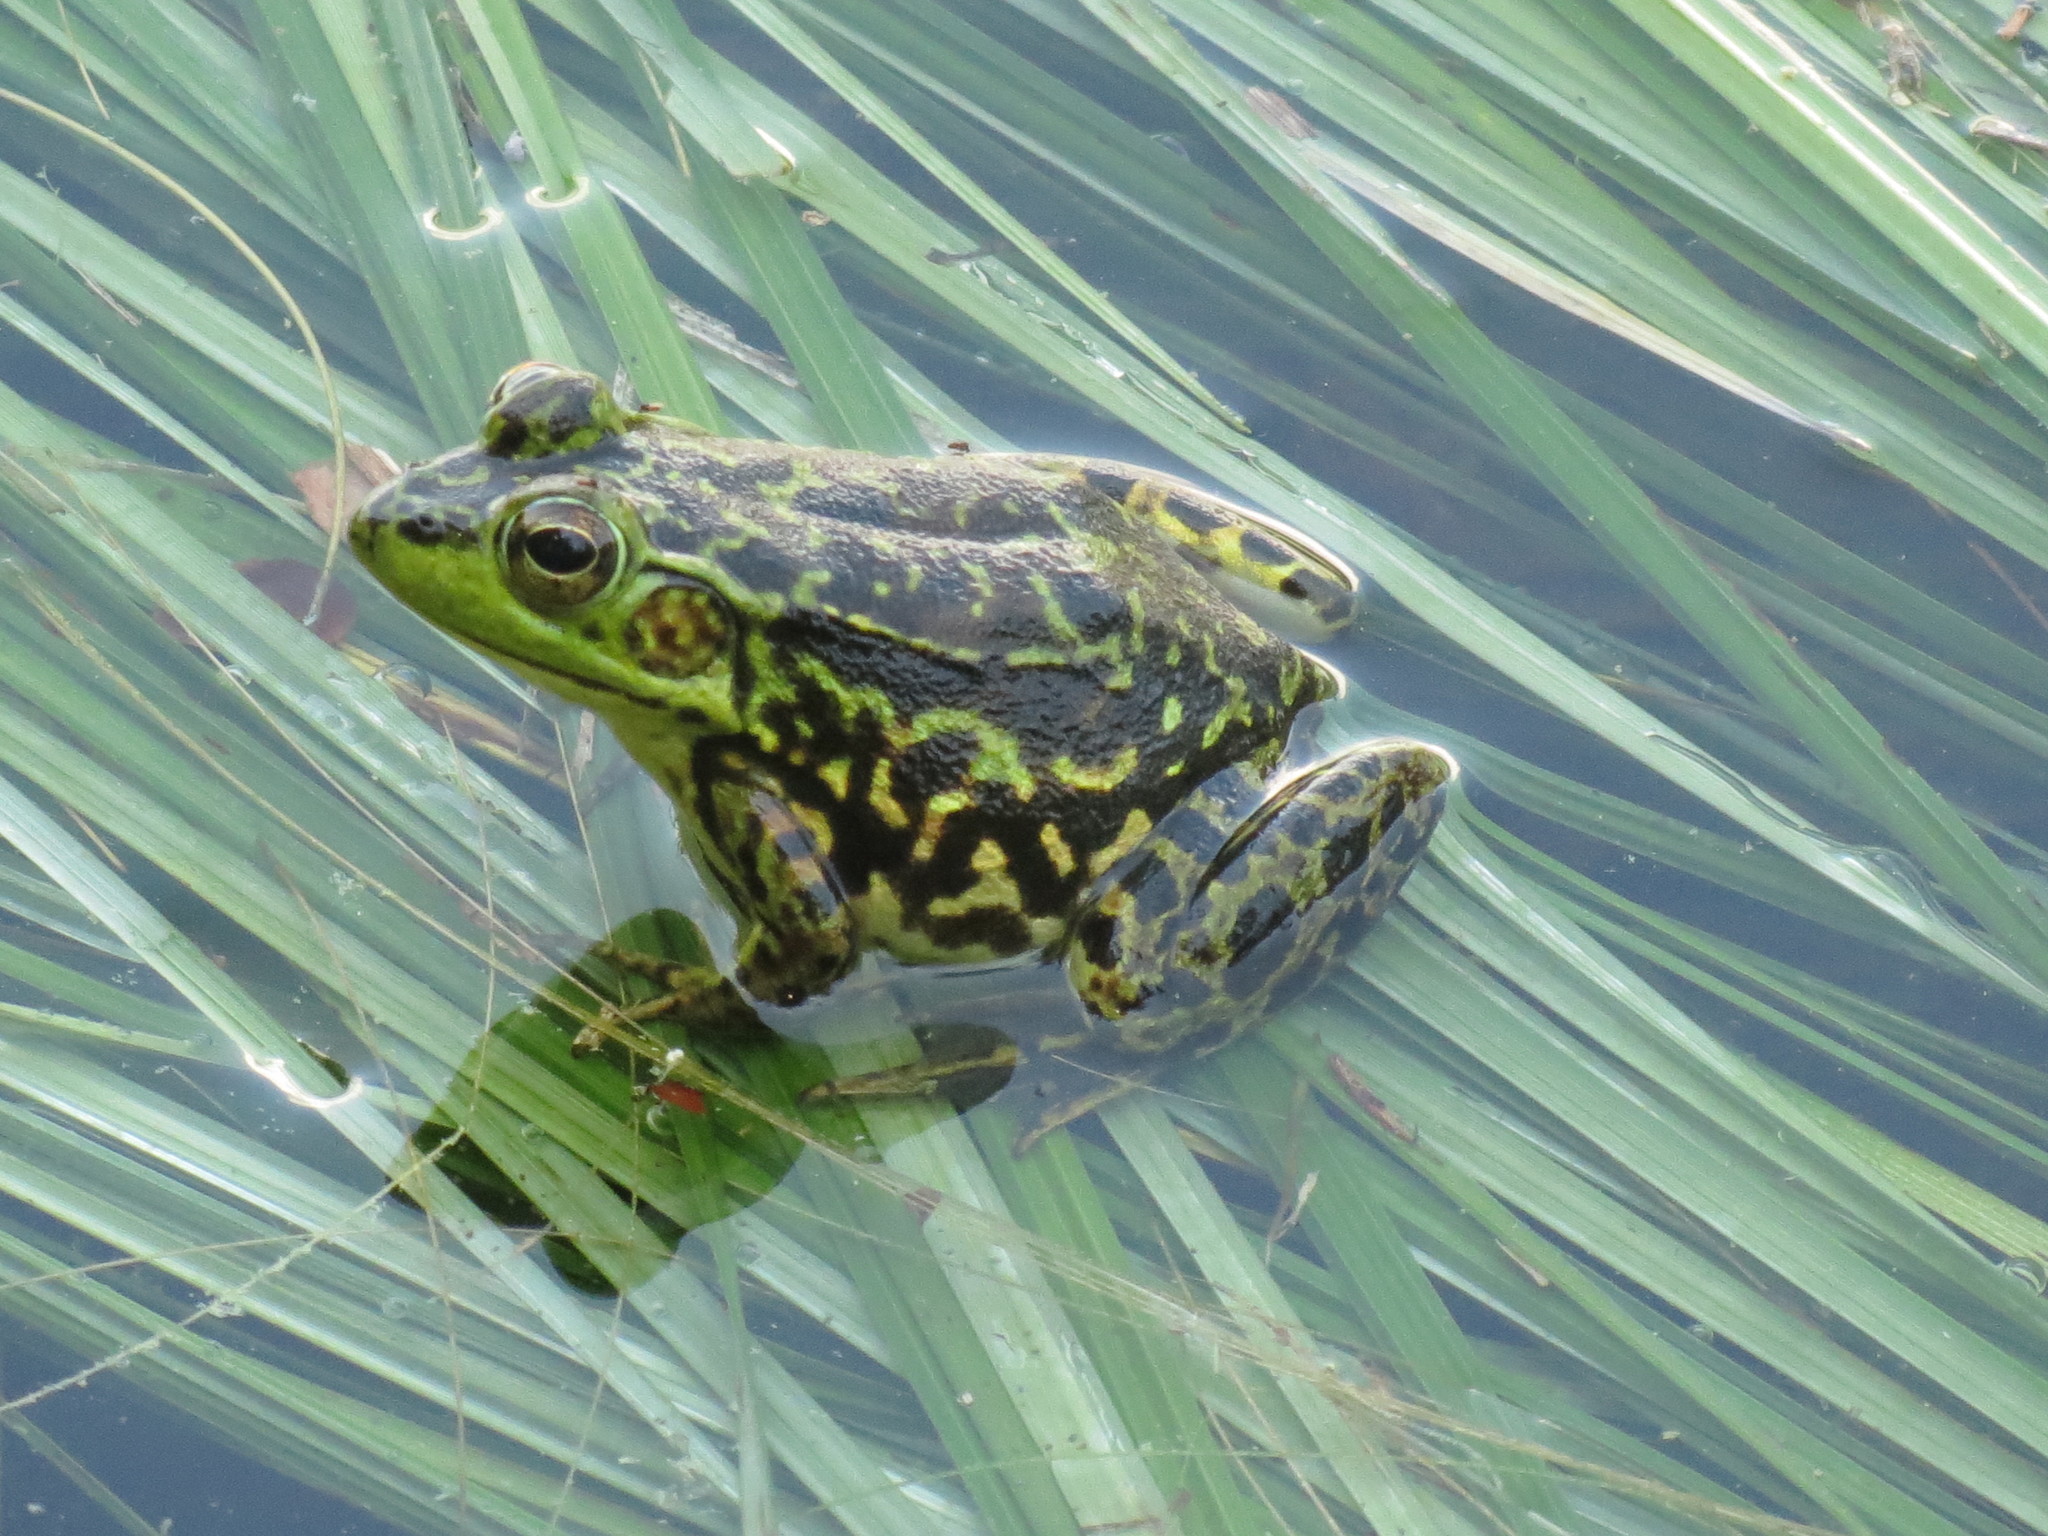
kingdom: Animalia
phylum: Chordata
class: Amphibia
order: Anura
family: Ranidae
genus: Lithobates
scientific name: Lithobates septentrionalis
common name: Mink frog
